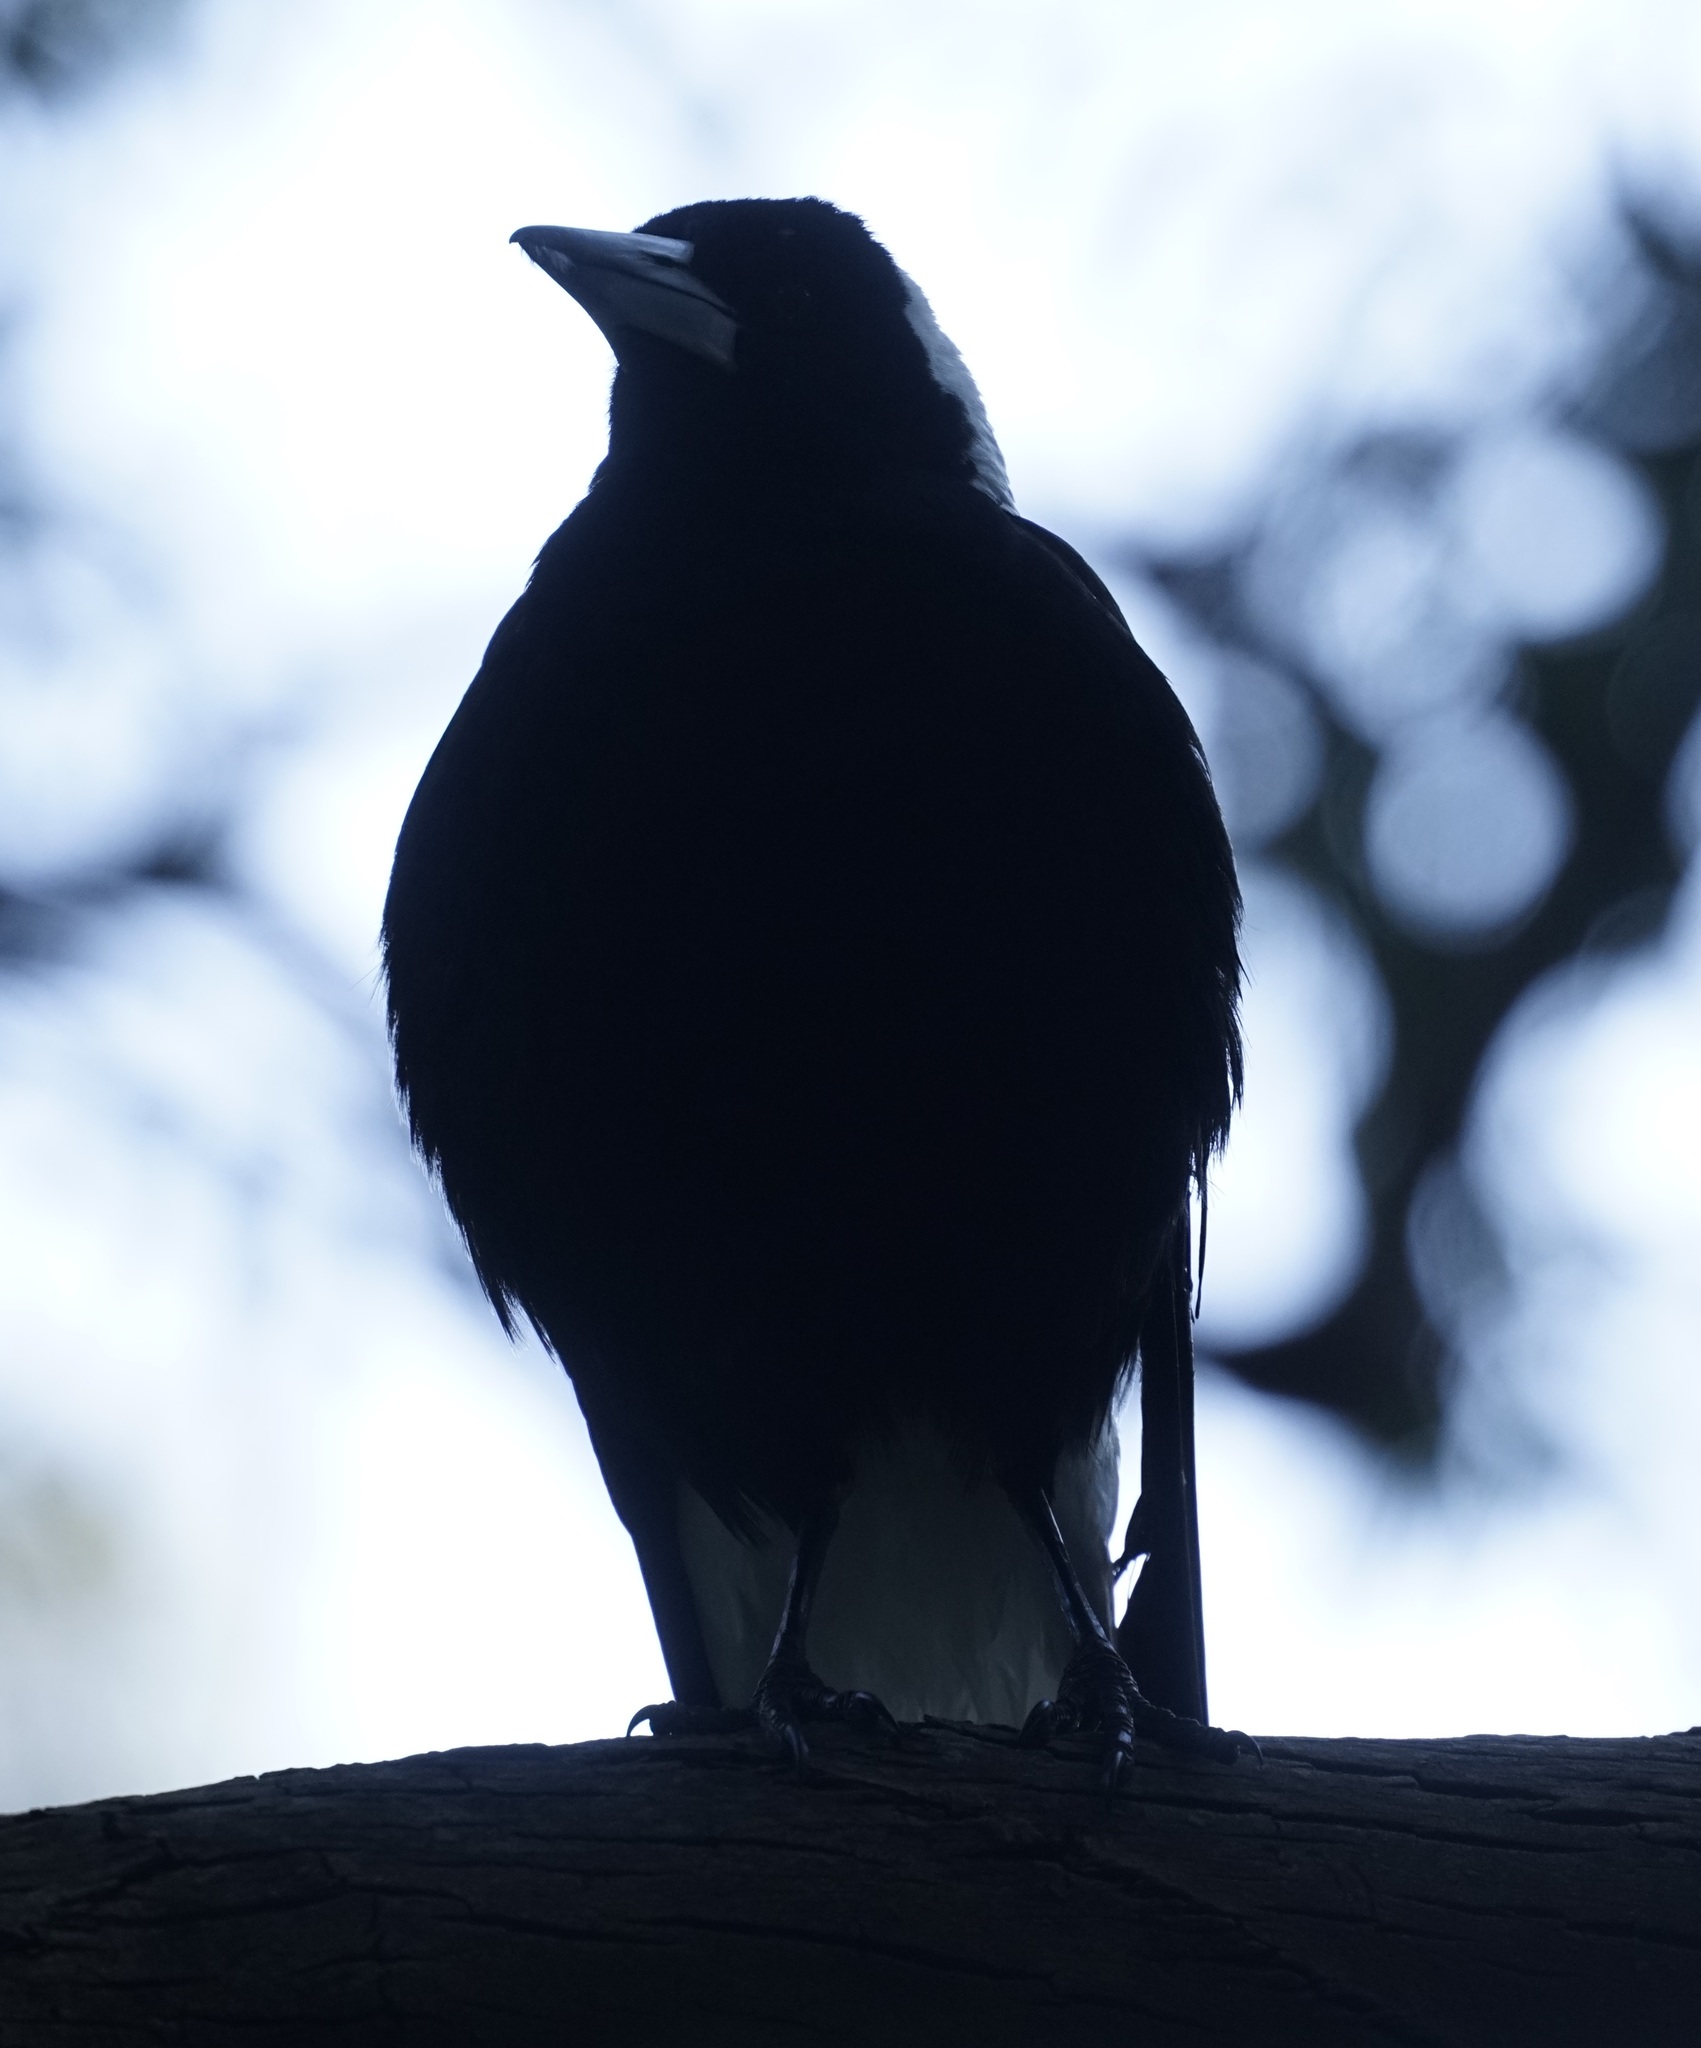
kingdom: Animalia
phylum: Chordata
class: Aves
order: Passeriformes
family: Cracticidae
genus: Gymnorhina
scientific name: Gymnorhina tibicen
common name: Australian magpie
